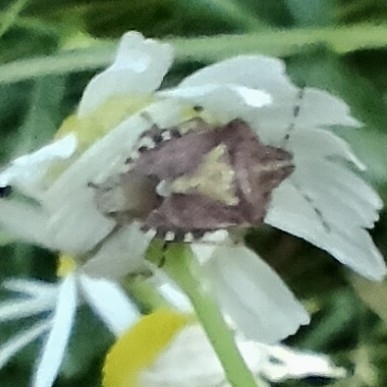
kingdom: Animalia
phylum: Arthropoda
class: Insecta
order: Hemiptera
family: Pentatomidae
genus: Dolycoris
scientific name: Dolycoris baccarum
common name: Sloe bug
